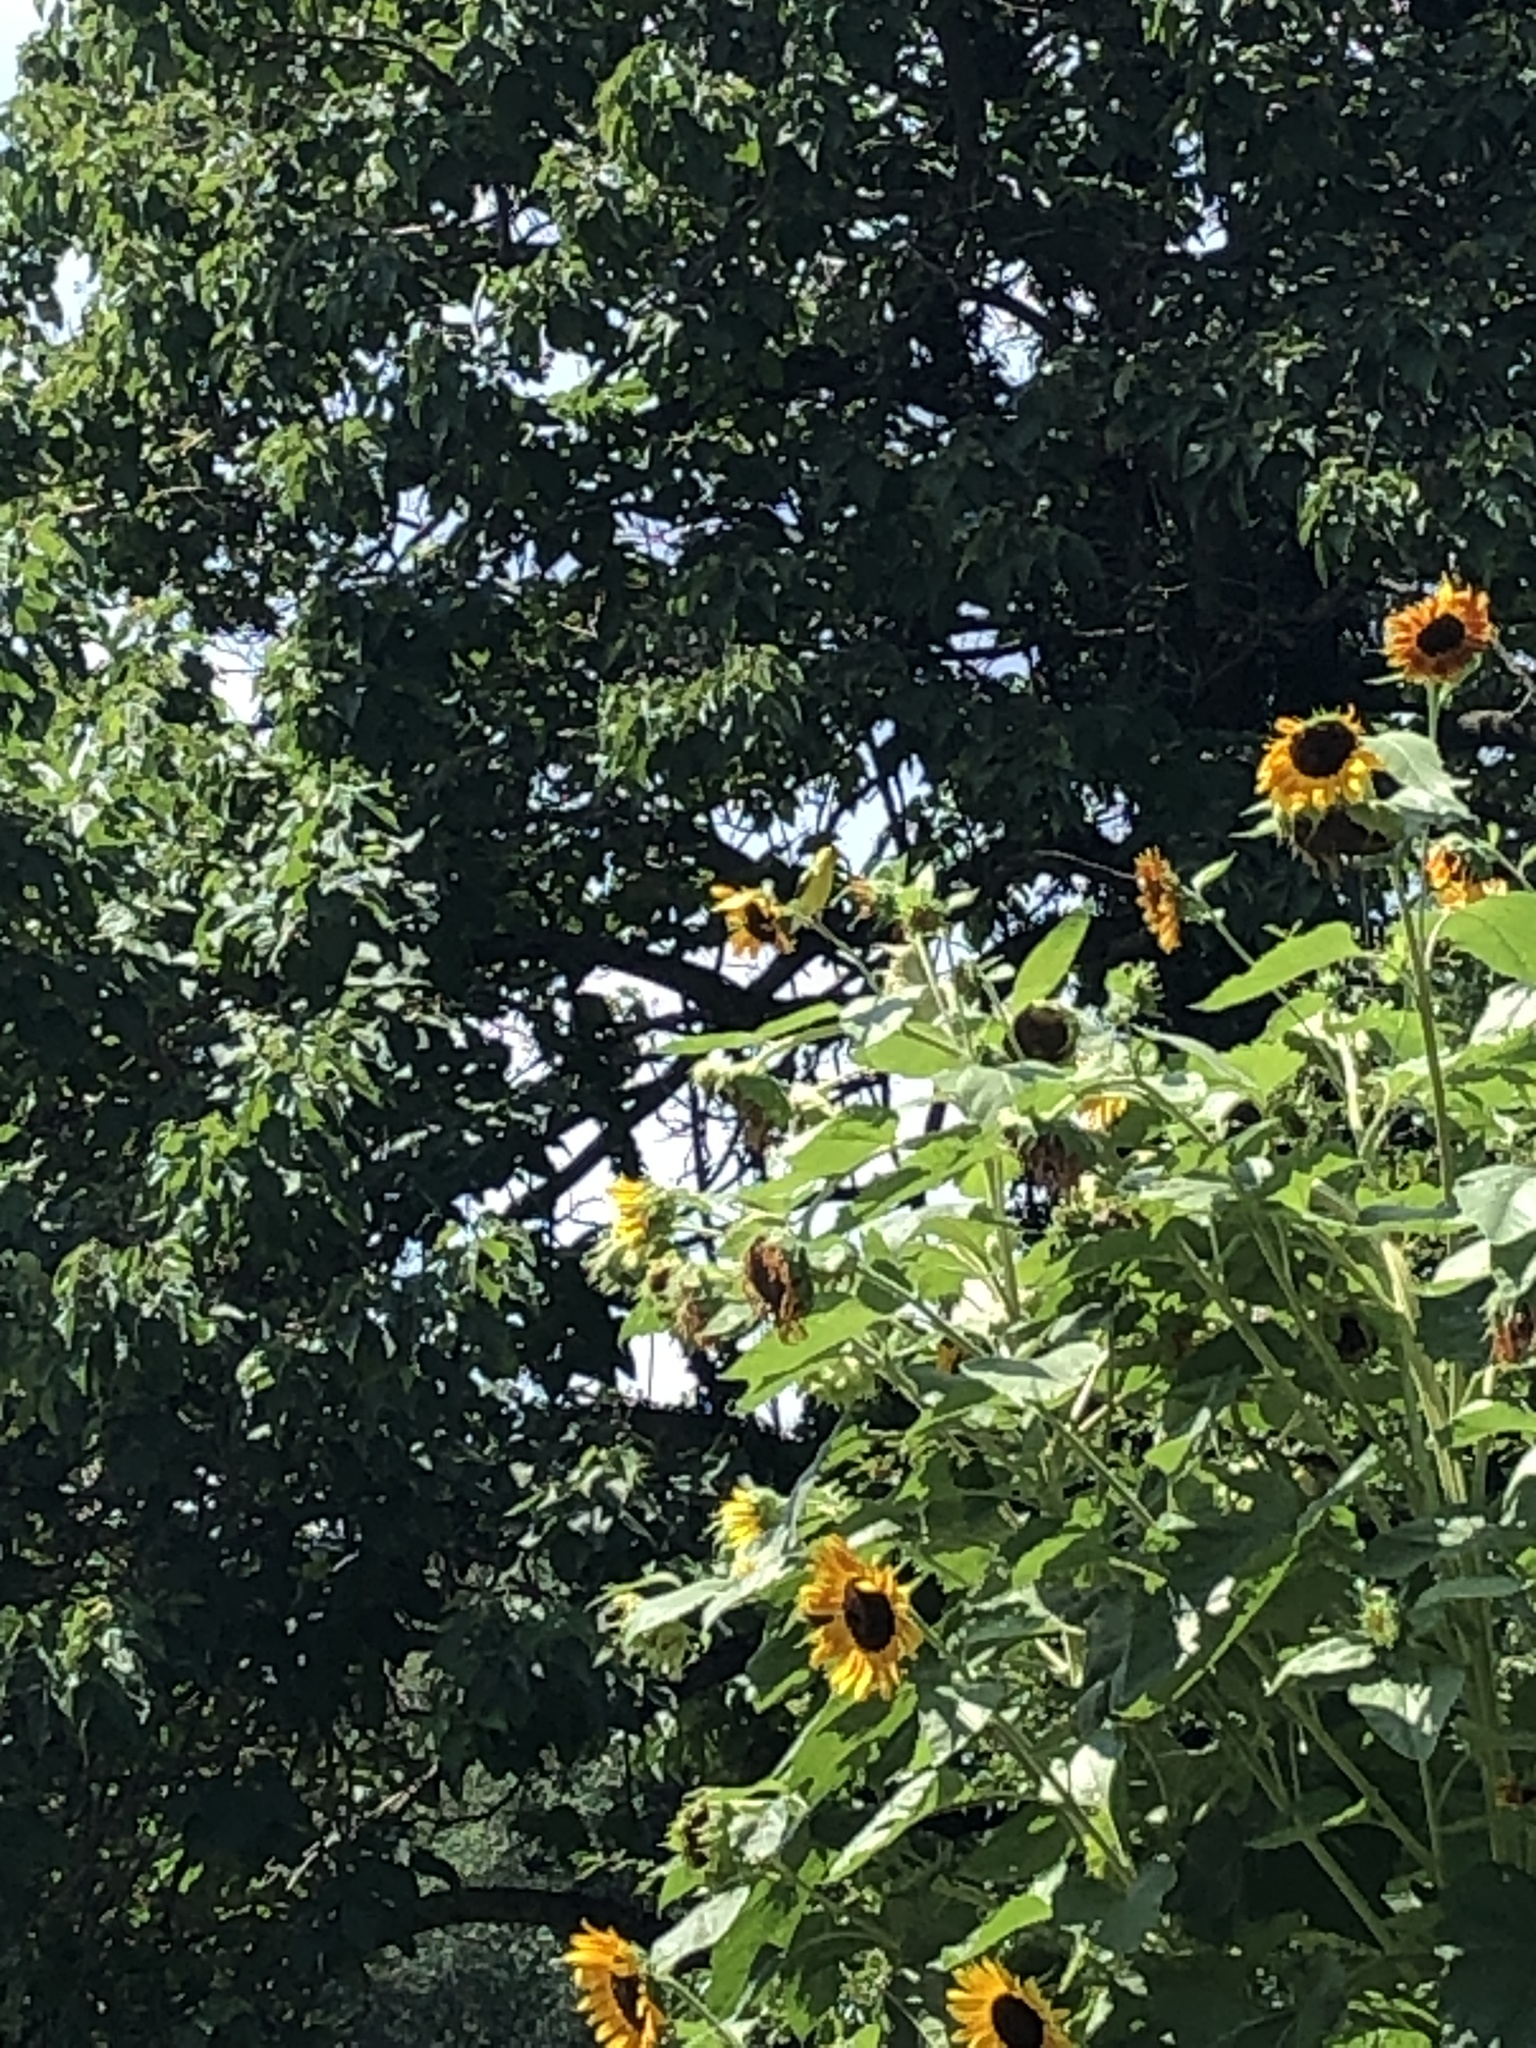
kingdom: Animalia
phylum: Chordata
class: Aves
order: Passeriformes
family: Fringillidae
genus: Spinus
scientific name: Spinus tristis
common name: American goldfinch
